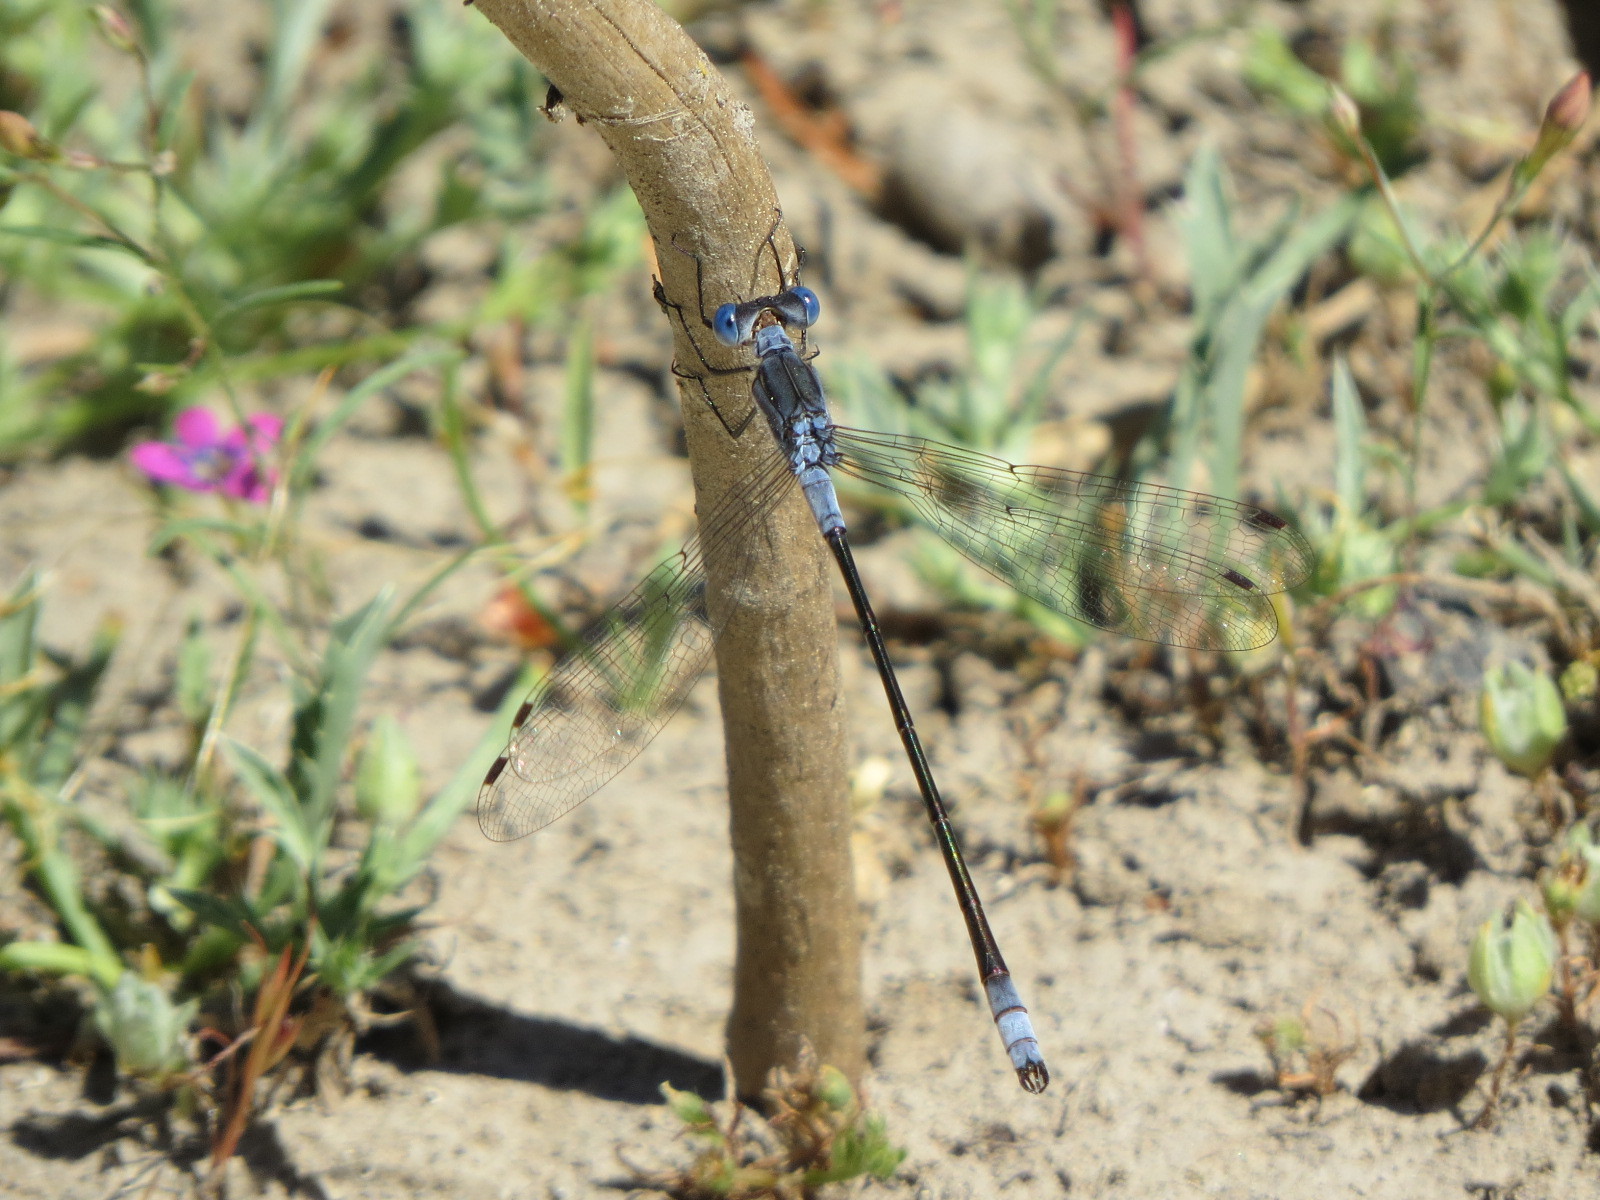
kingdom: Animalia
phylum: Arthropoda
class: Insecta
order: Odonata
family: Lestidae
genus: Lestes
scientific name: Lestes disjunctus
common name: Northern spreadwing
